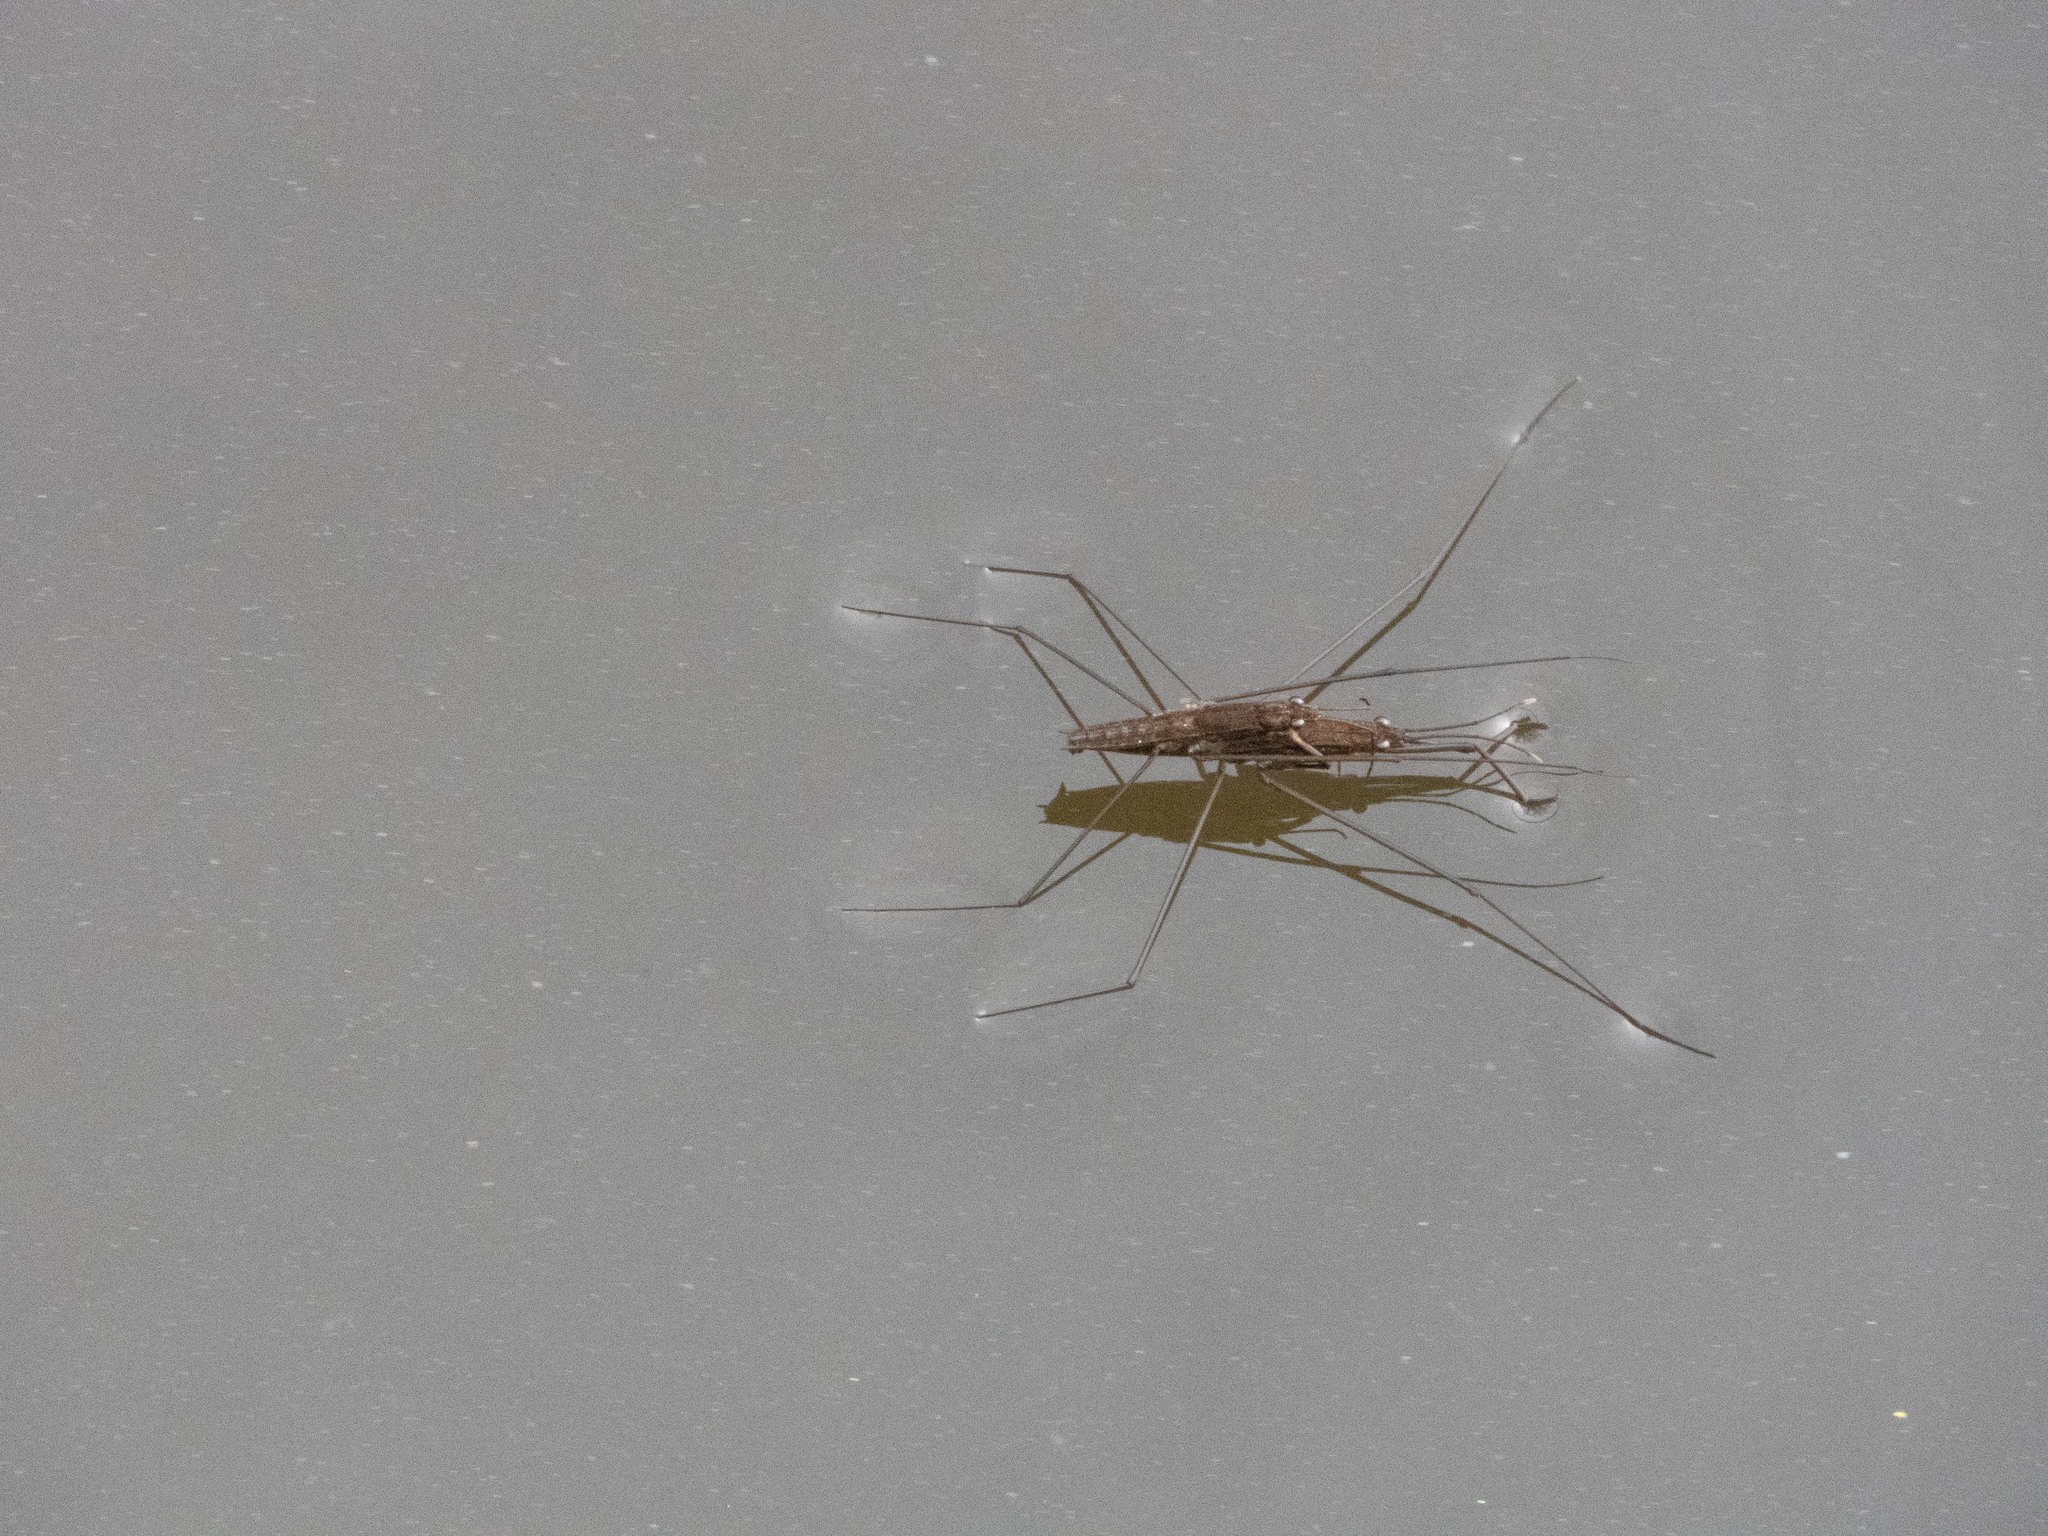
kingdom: Animalia
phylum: Arthropoda
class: Insecta
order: Hemiptera
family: Gerridae
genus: Aquarius
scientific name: Aquarius najas
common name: River skater
